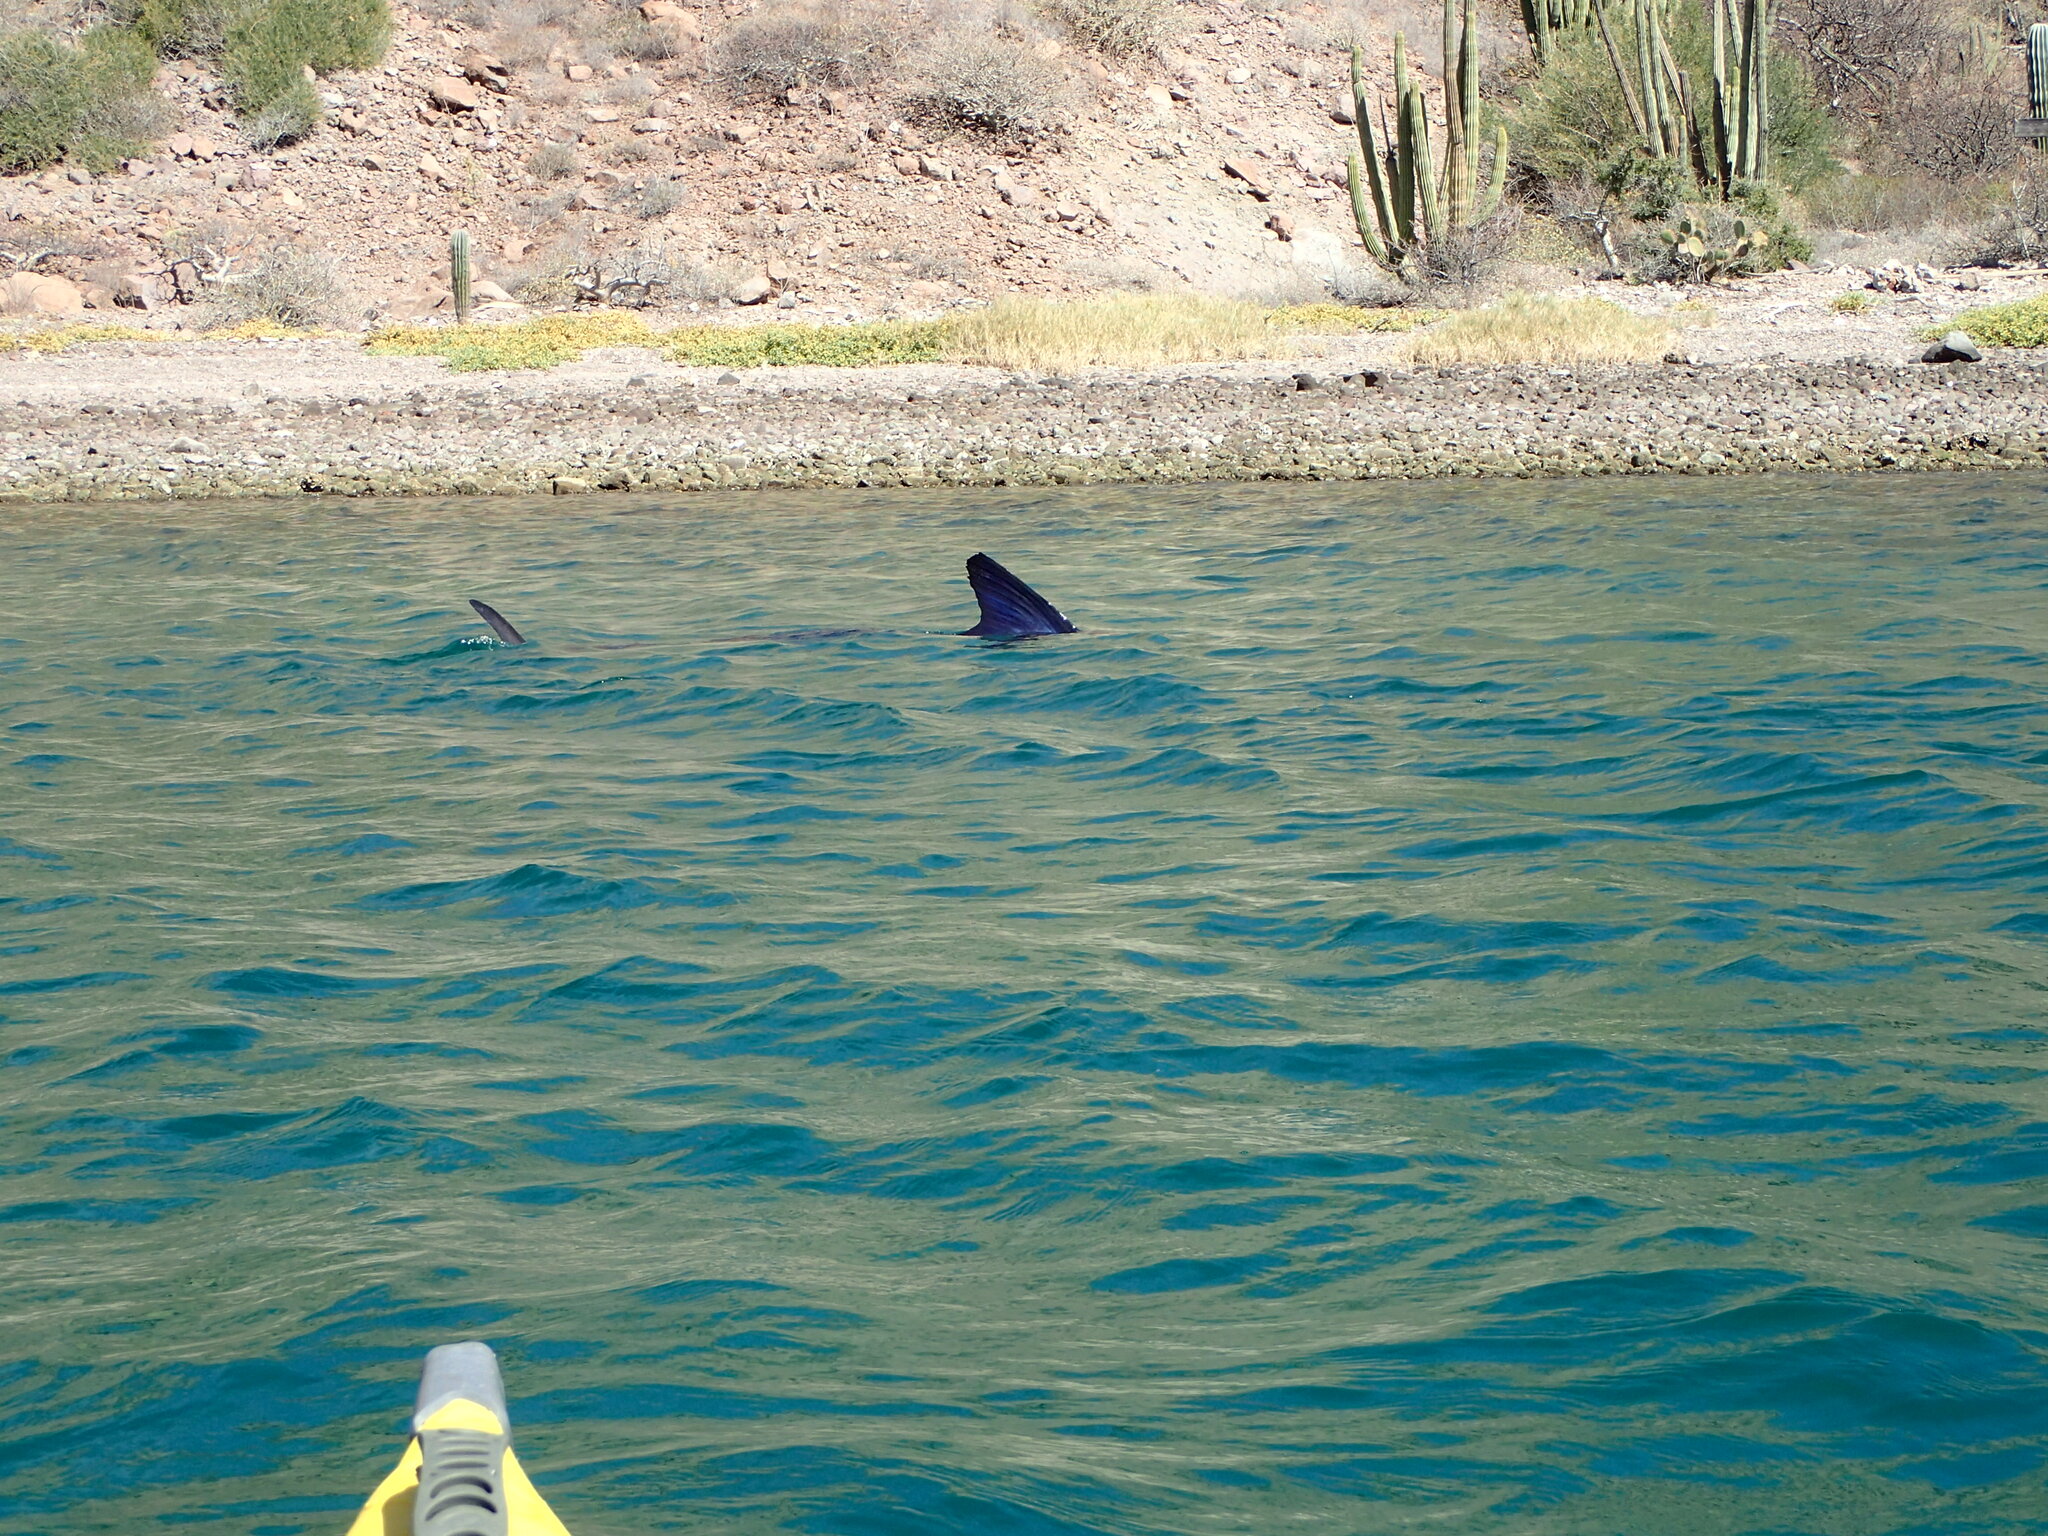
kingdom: Animalia
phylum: Chordata
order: Perciformes
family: Istiophoridae
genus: Kajikia
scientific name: Kajikia audax
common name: Striped marlin
